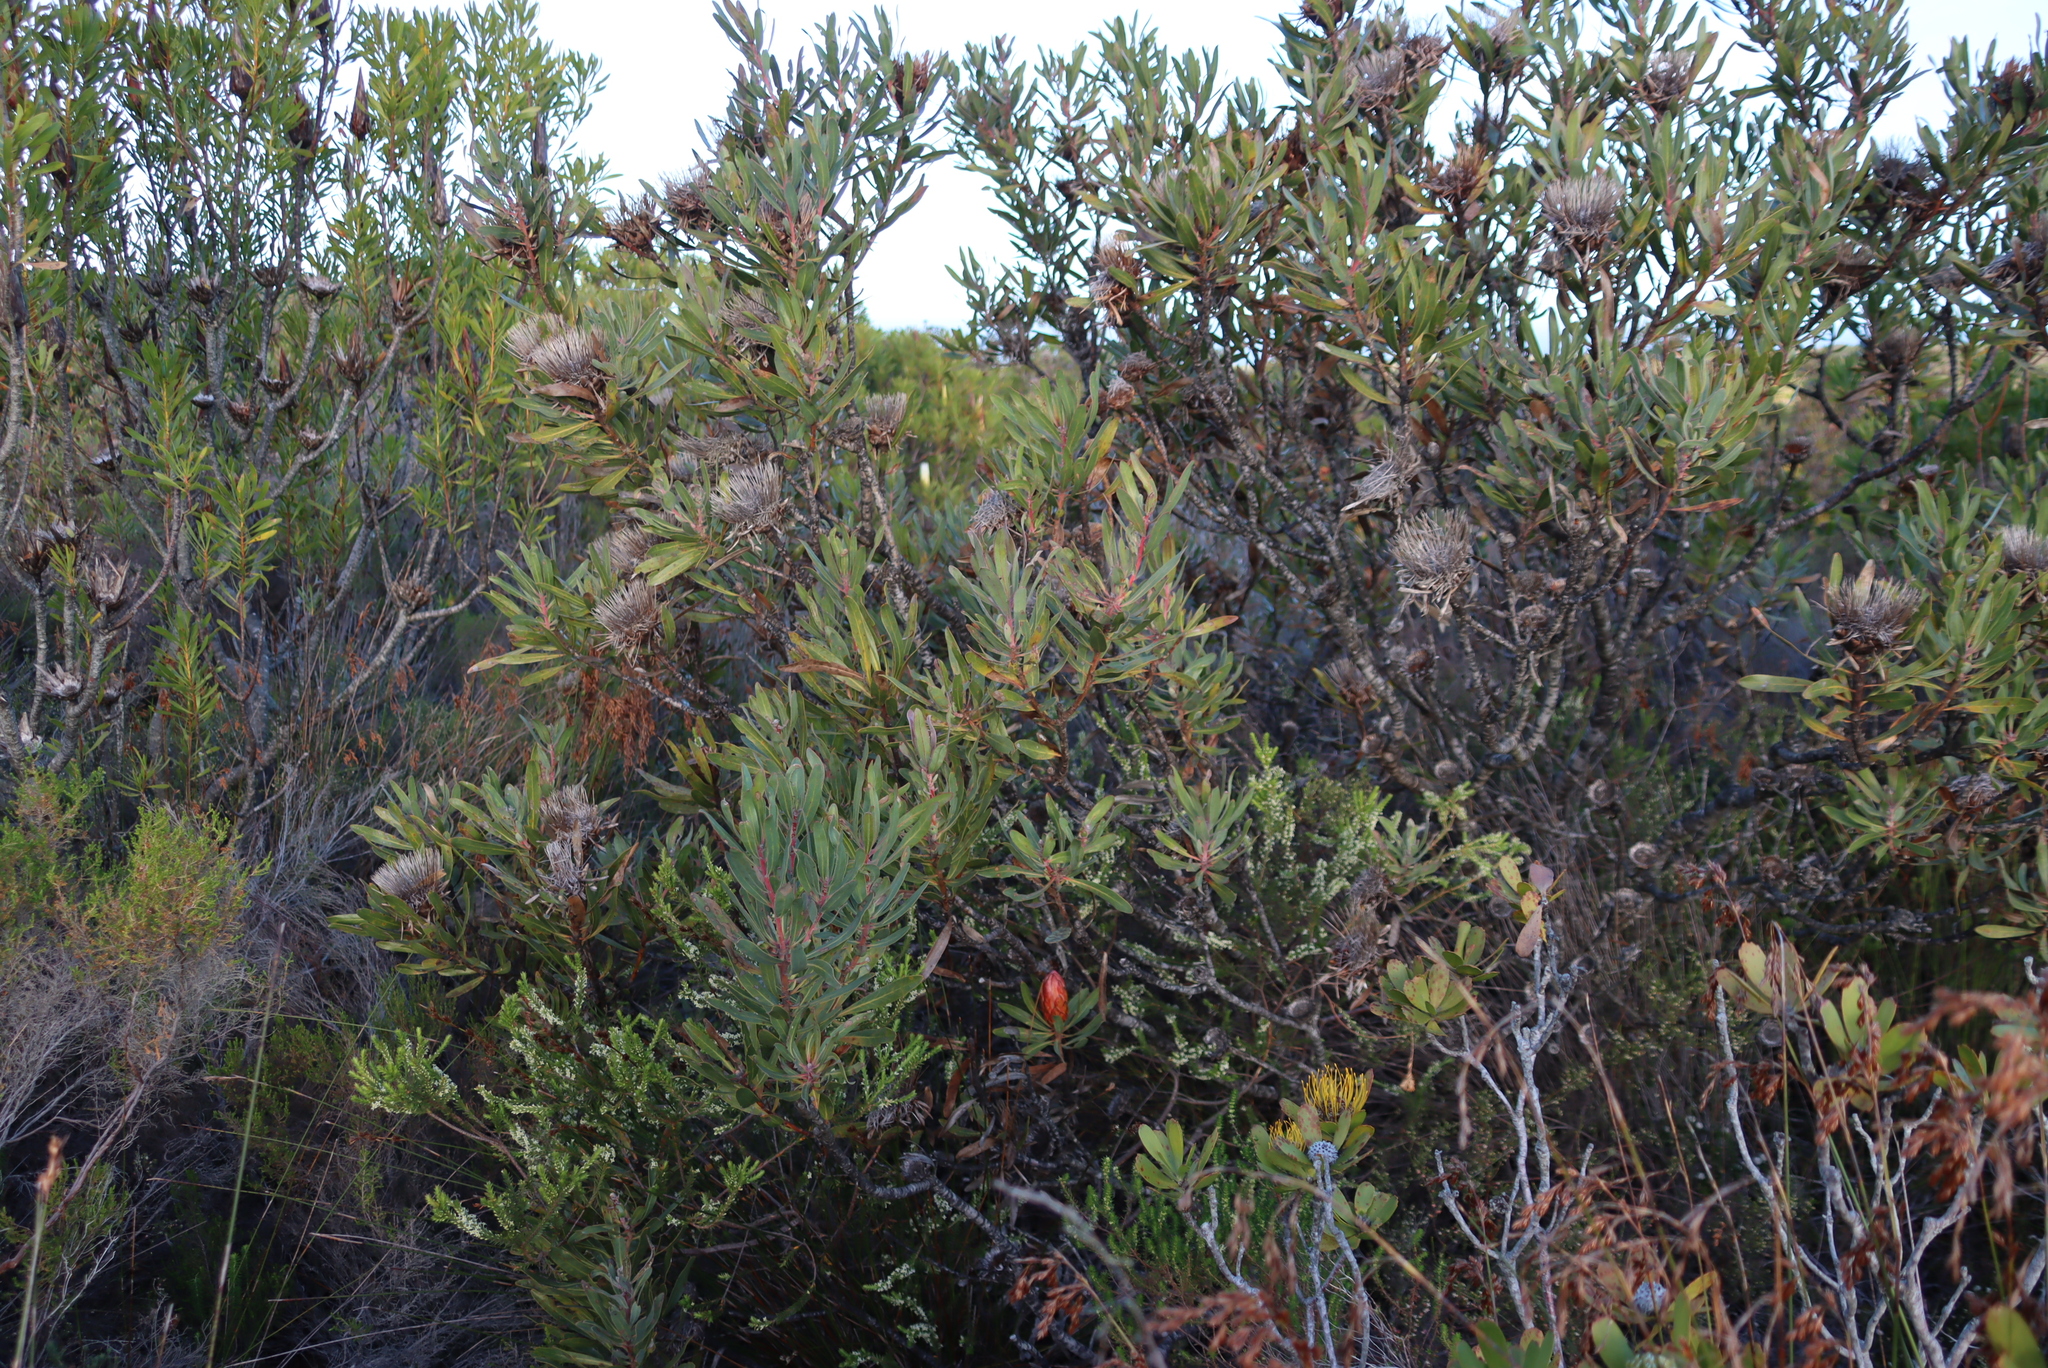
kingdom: Plantae
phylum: Tracheophyta
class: Magnoliopsida
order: Proteales
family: Proteaceae
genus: Protea
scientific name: Protea susannae
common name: Foetid-leaf sugarbush
